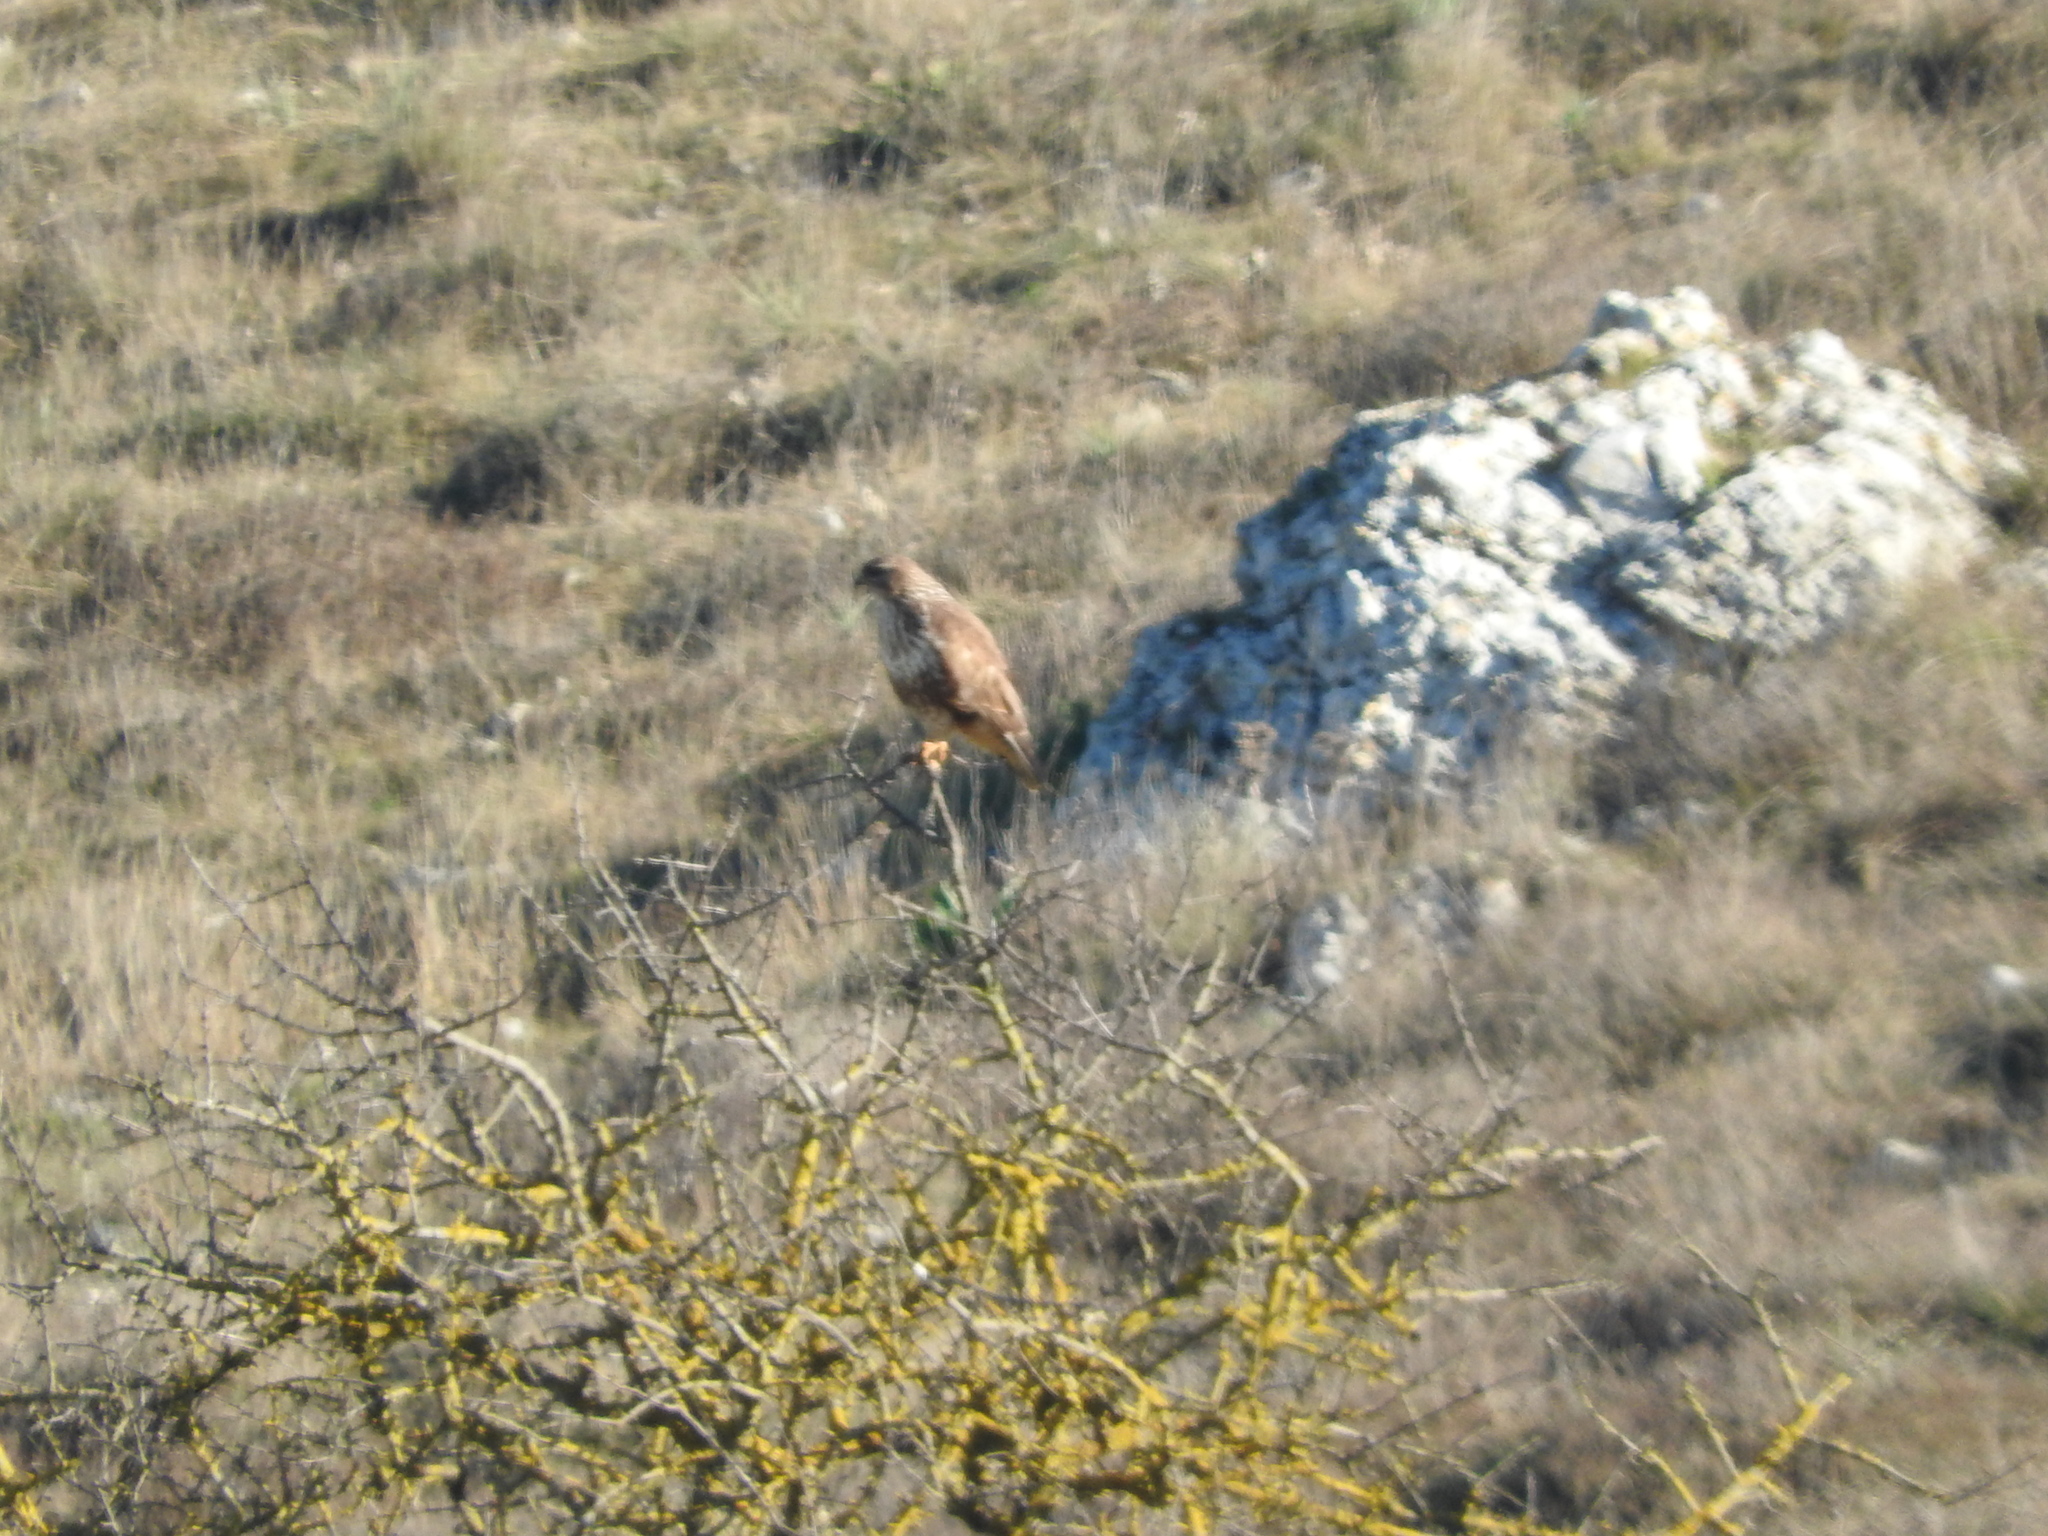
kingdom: Animalia
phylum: Chordata
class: Aves
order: Accipitriformes
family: Accipitridae
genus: Buteo
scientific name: Buteo buteo
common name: Common buzzard
